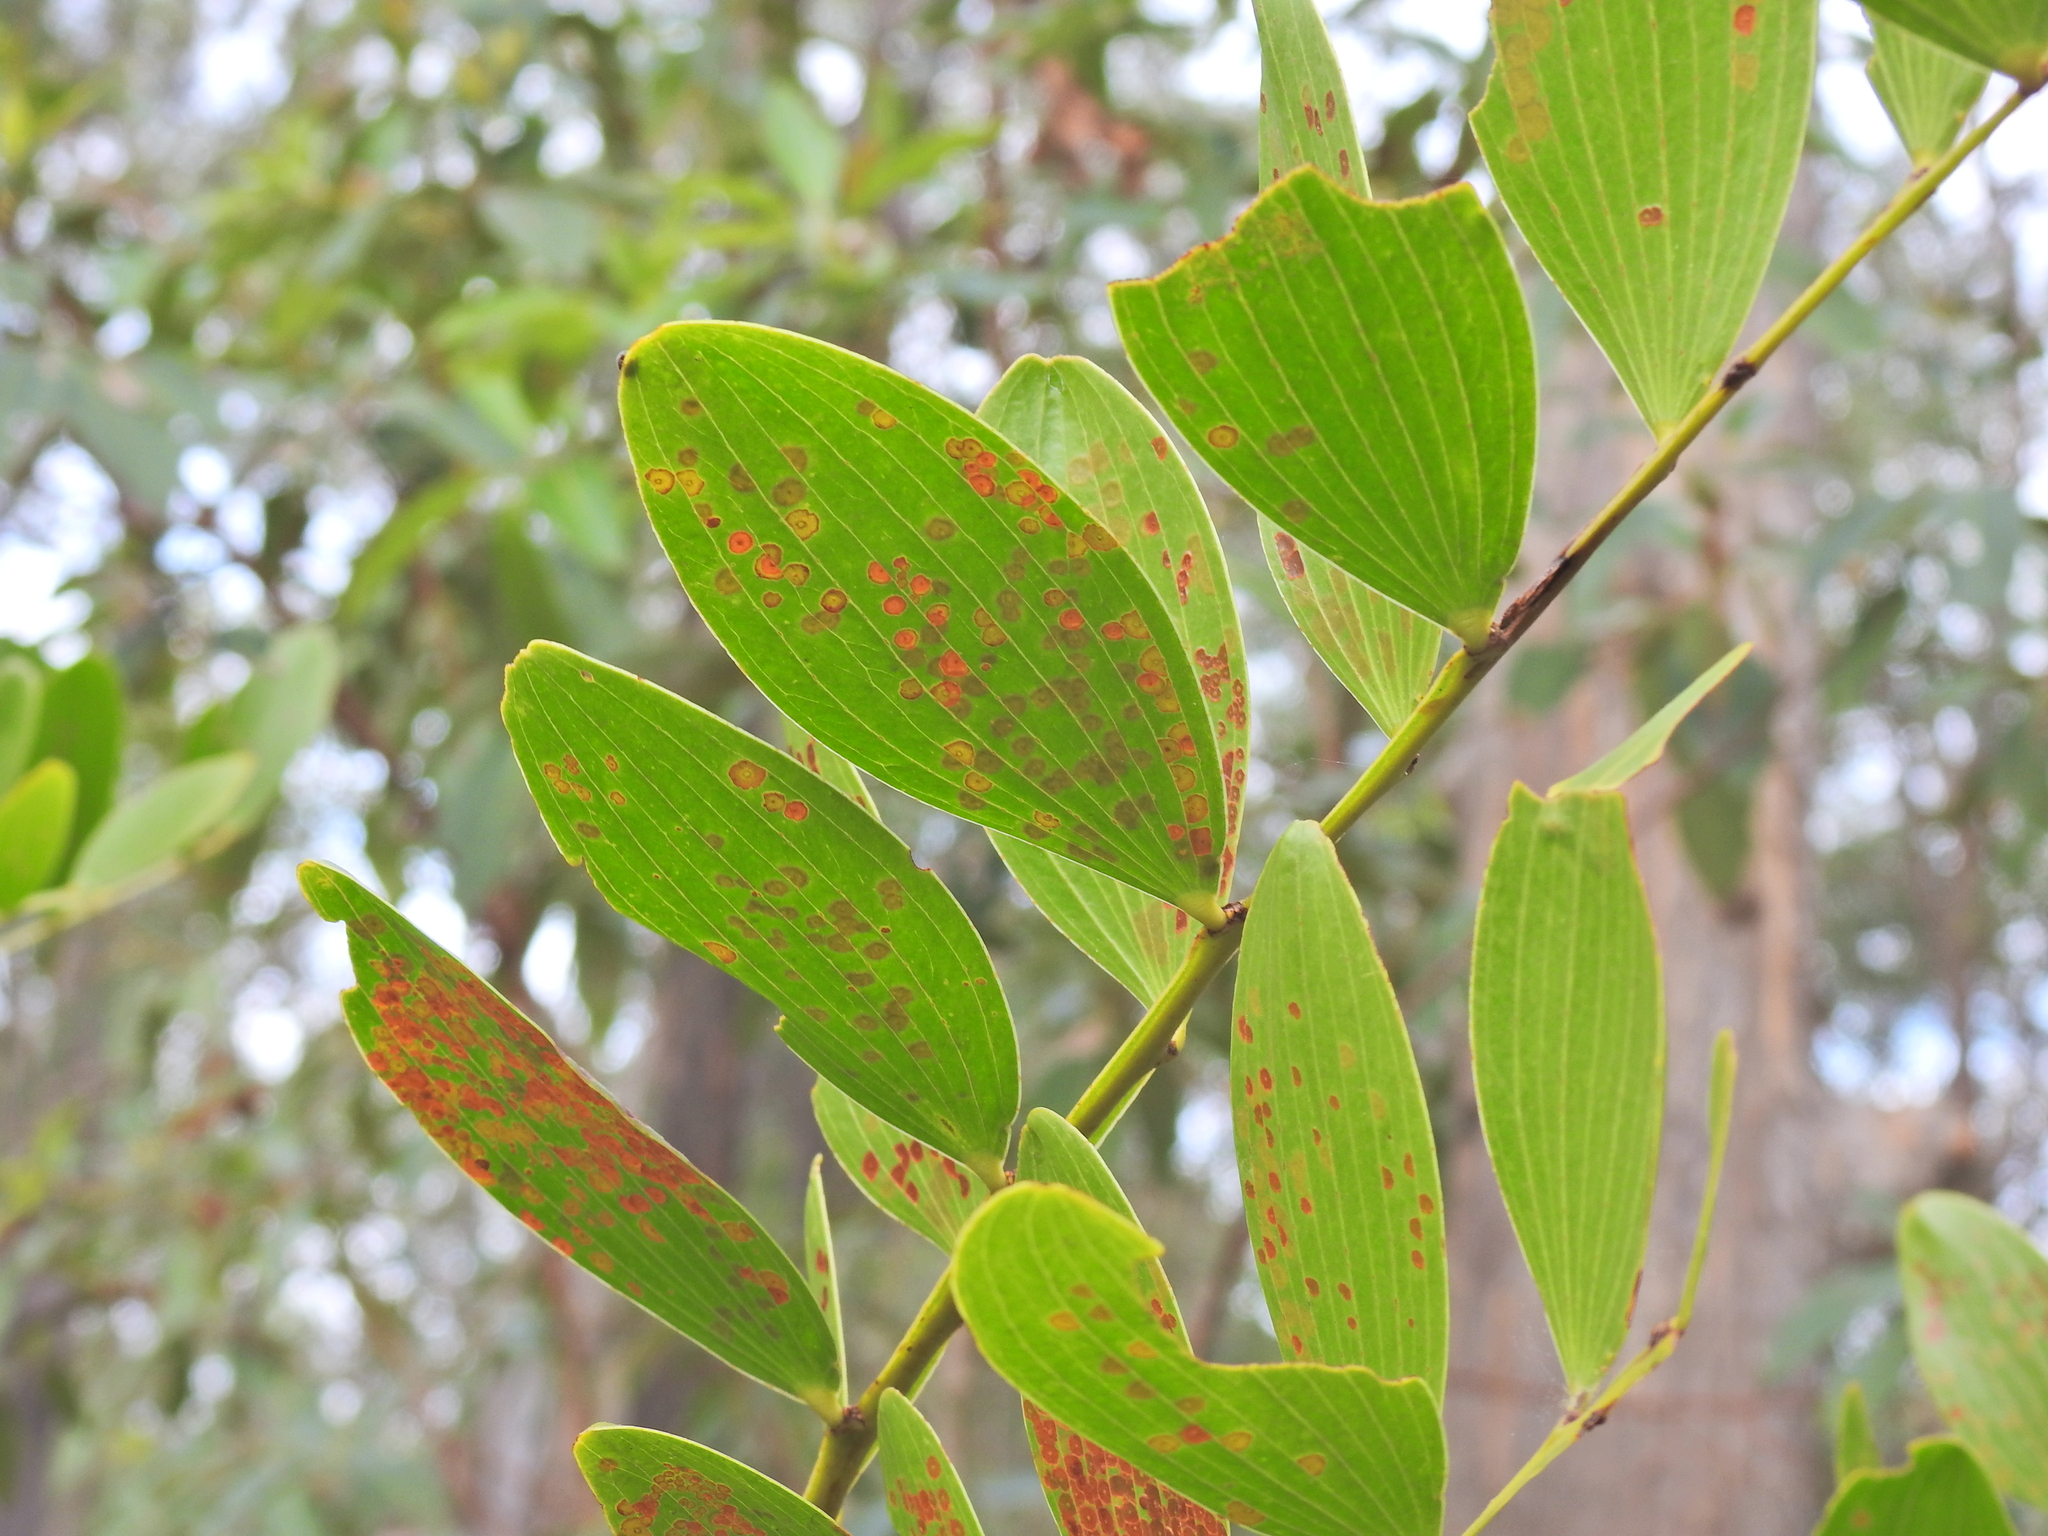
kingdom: Plantae
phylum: Tracheophyta
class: Magnoliopsida
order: Fabales
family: Fabaceae
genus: Acacia
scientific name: Acacia complanata
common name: Flat-stemmed wattle
